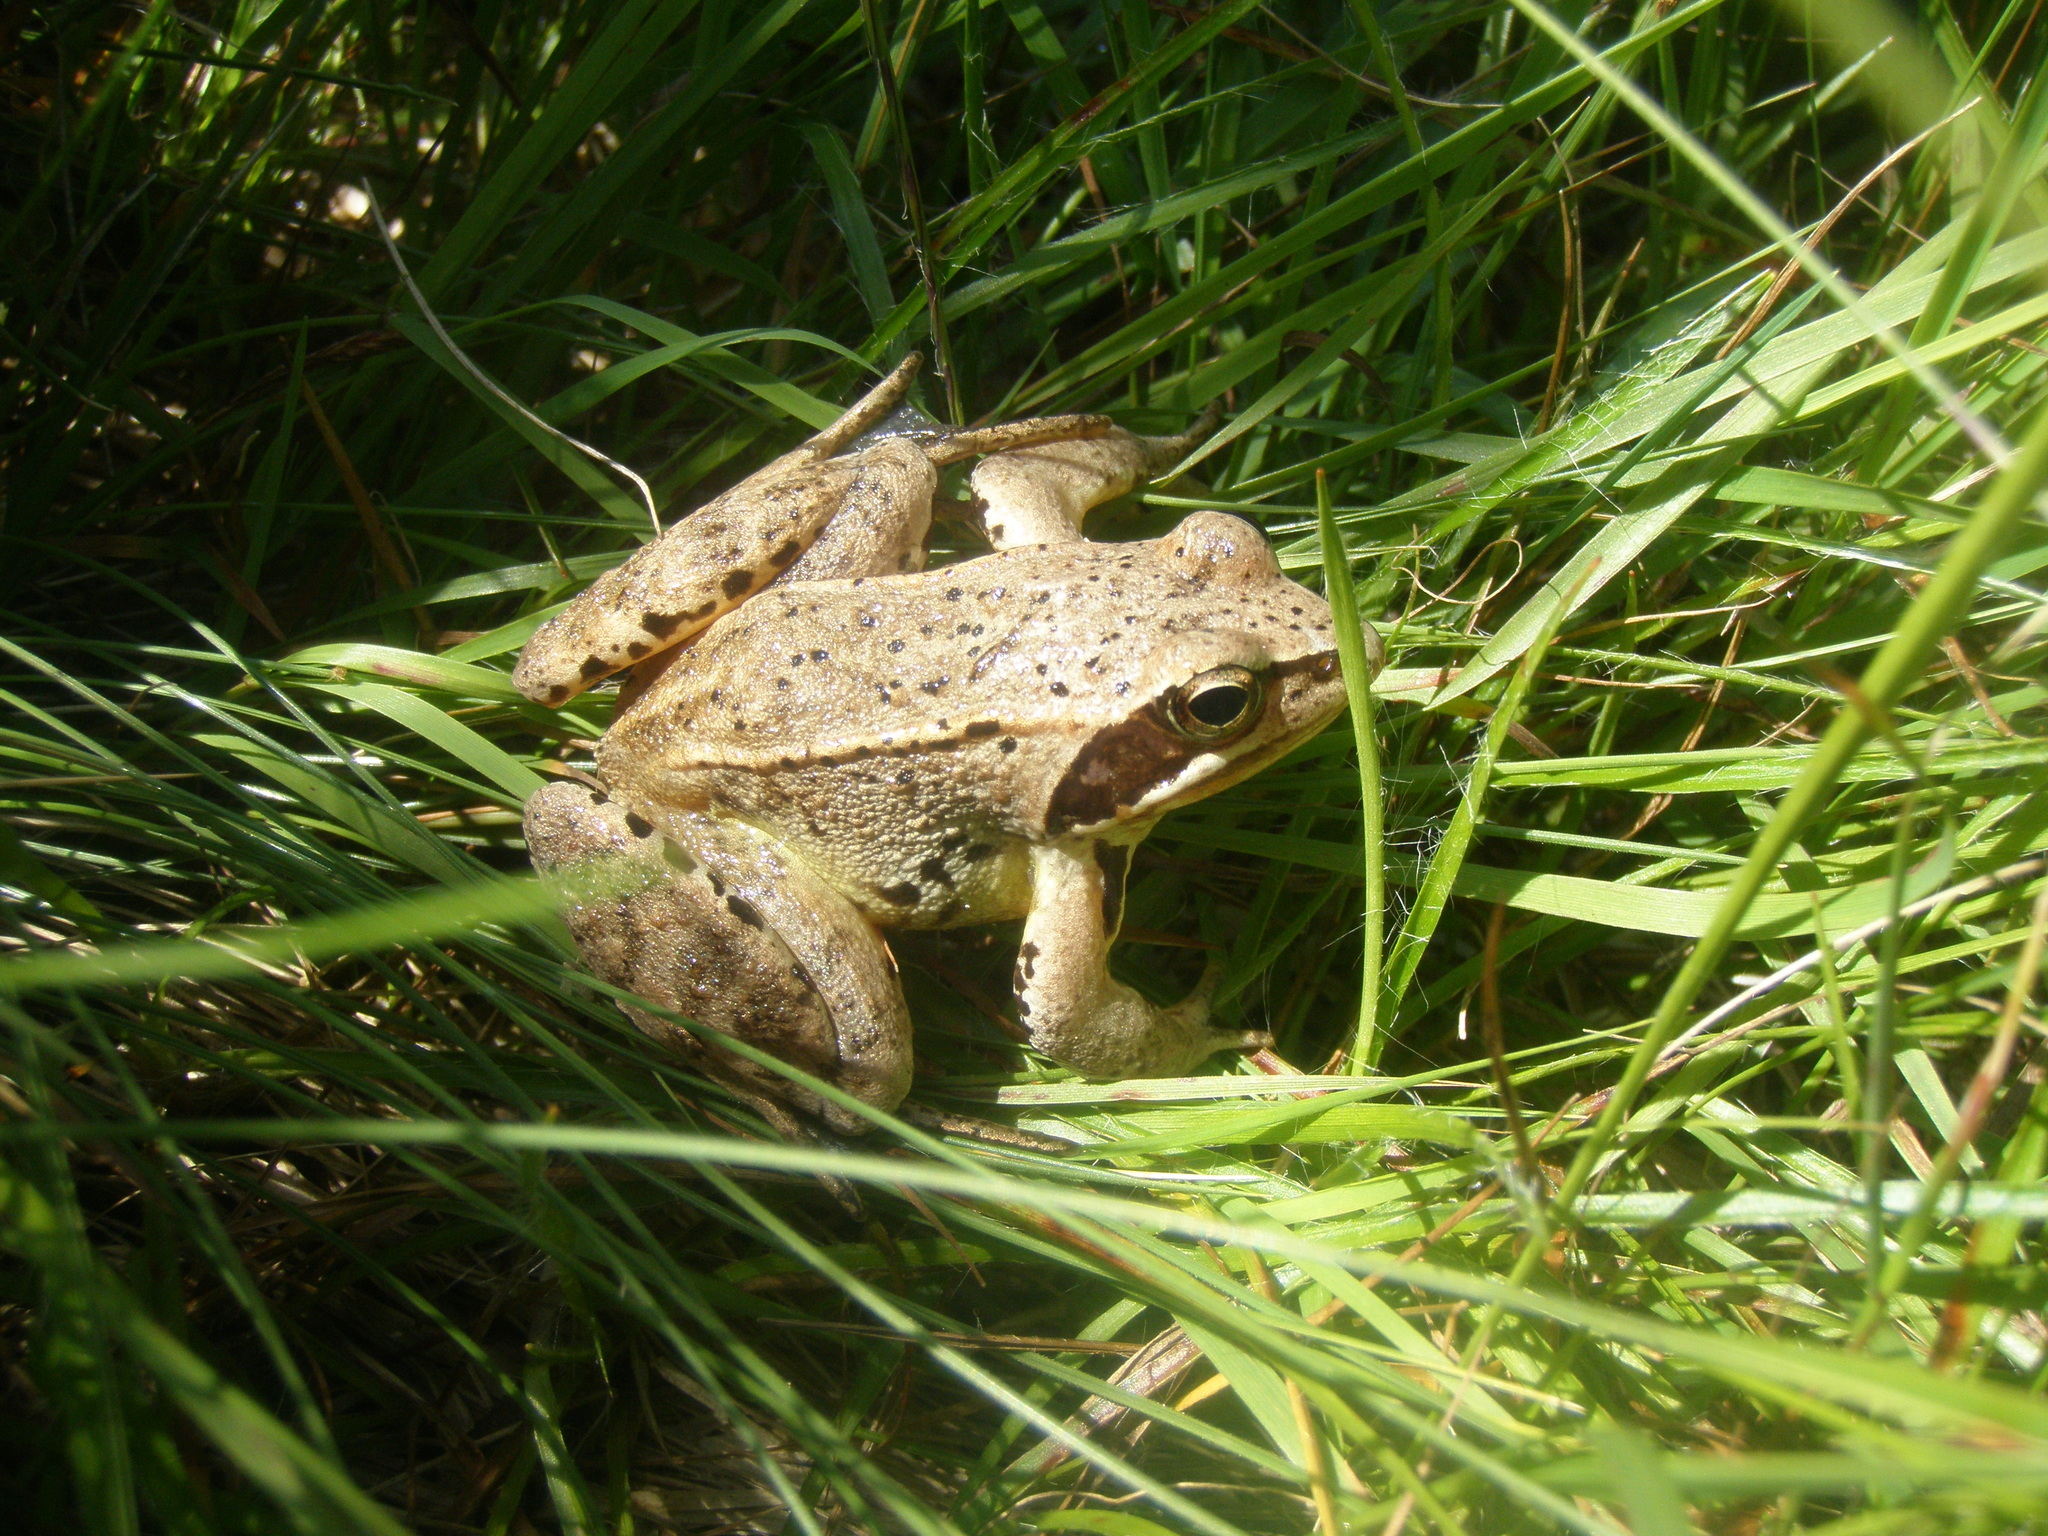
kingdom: Animalia
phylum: Chordata
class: Amphibia
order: Anura
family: Ranidae
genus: Rana
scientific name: Rana arvalis
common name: Moor frog
